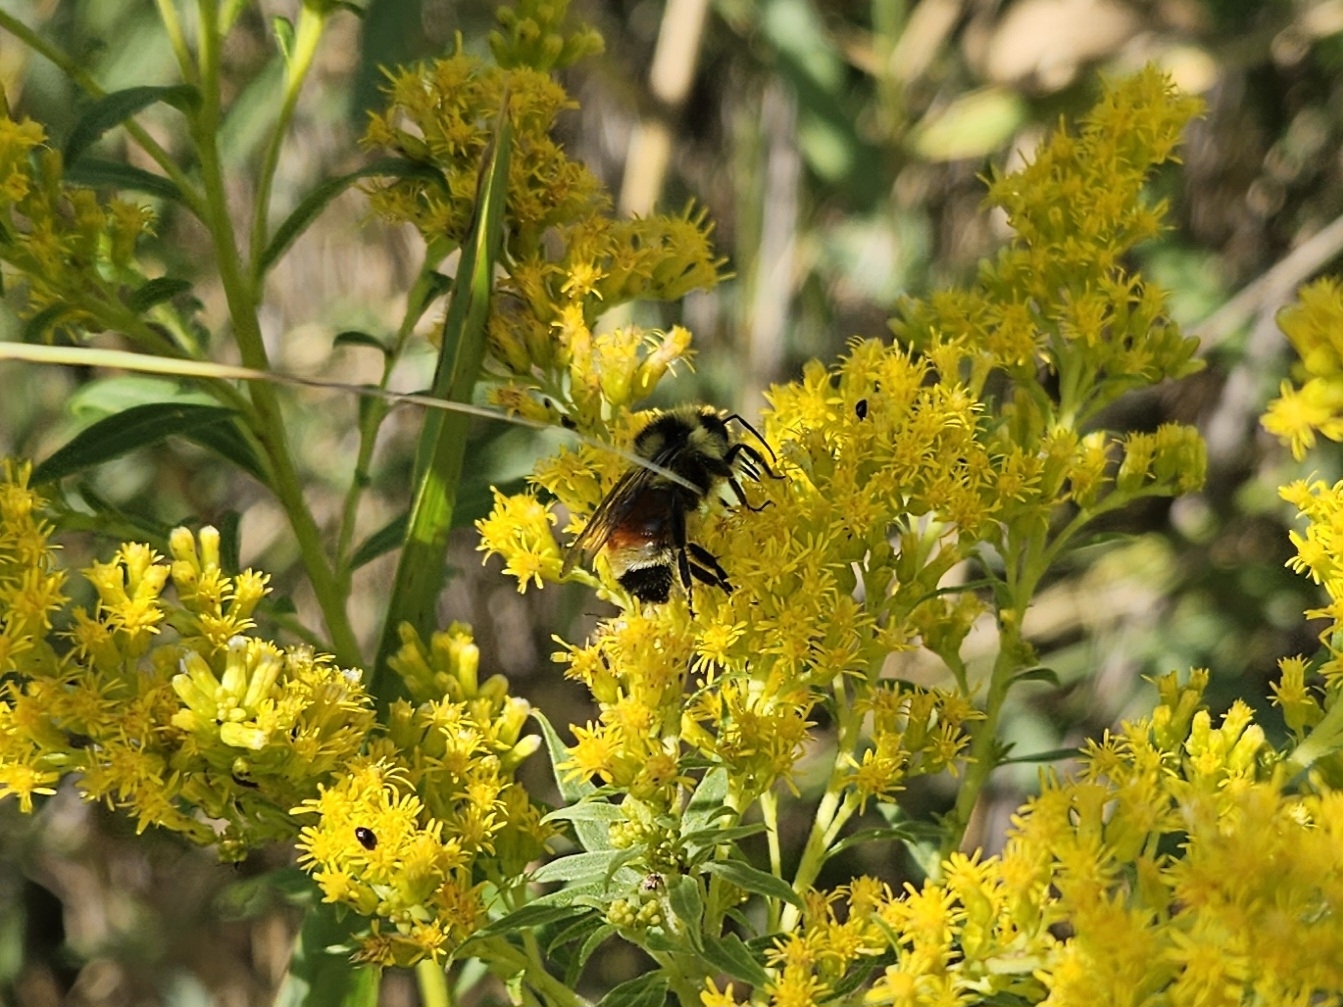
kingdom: Animalia
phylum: Arthropoda
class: Insecta
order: Hymenoptera
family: Apidae
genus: Bombus
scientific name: Bombus ternarius
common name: Tri-colored bumble bee
